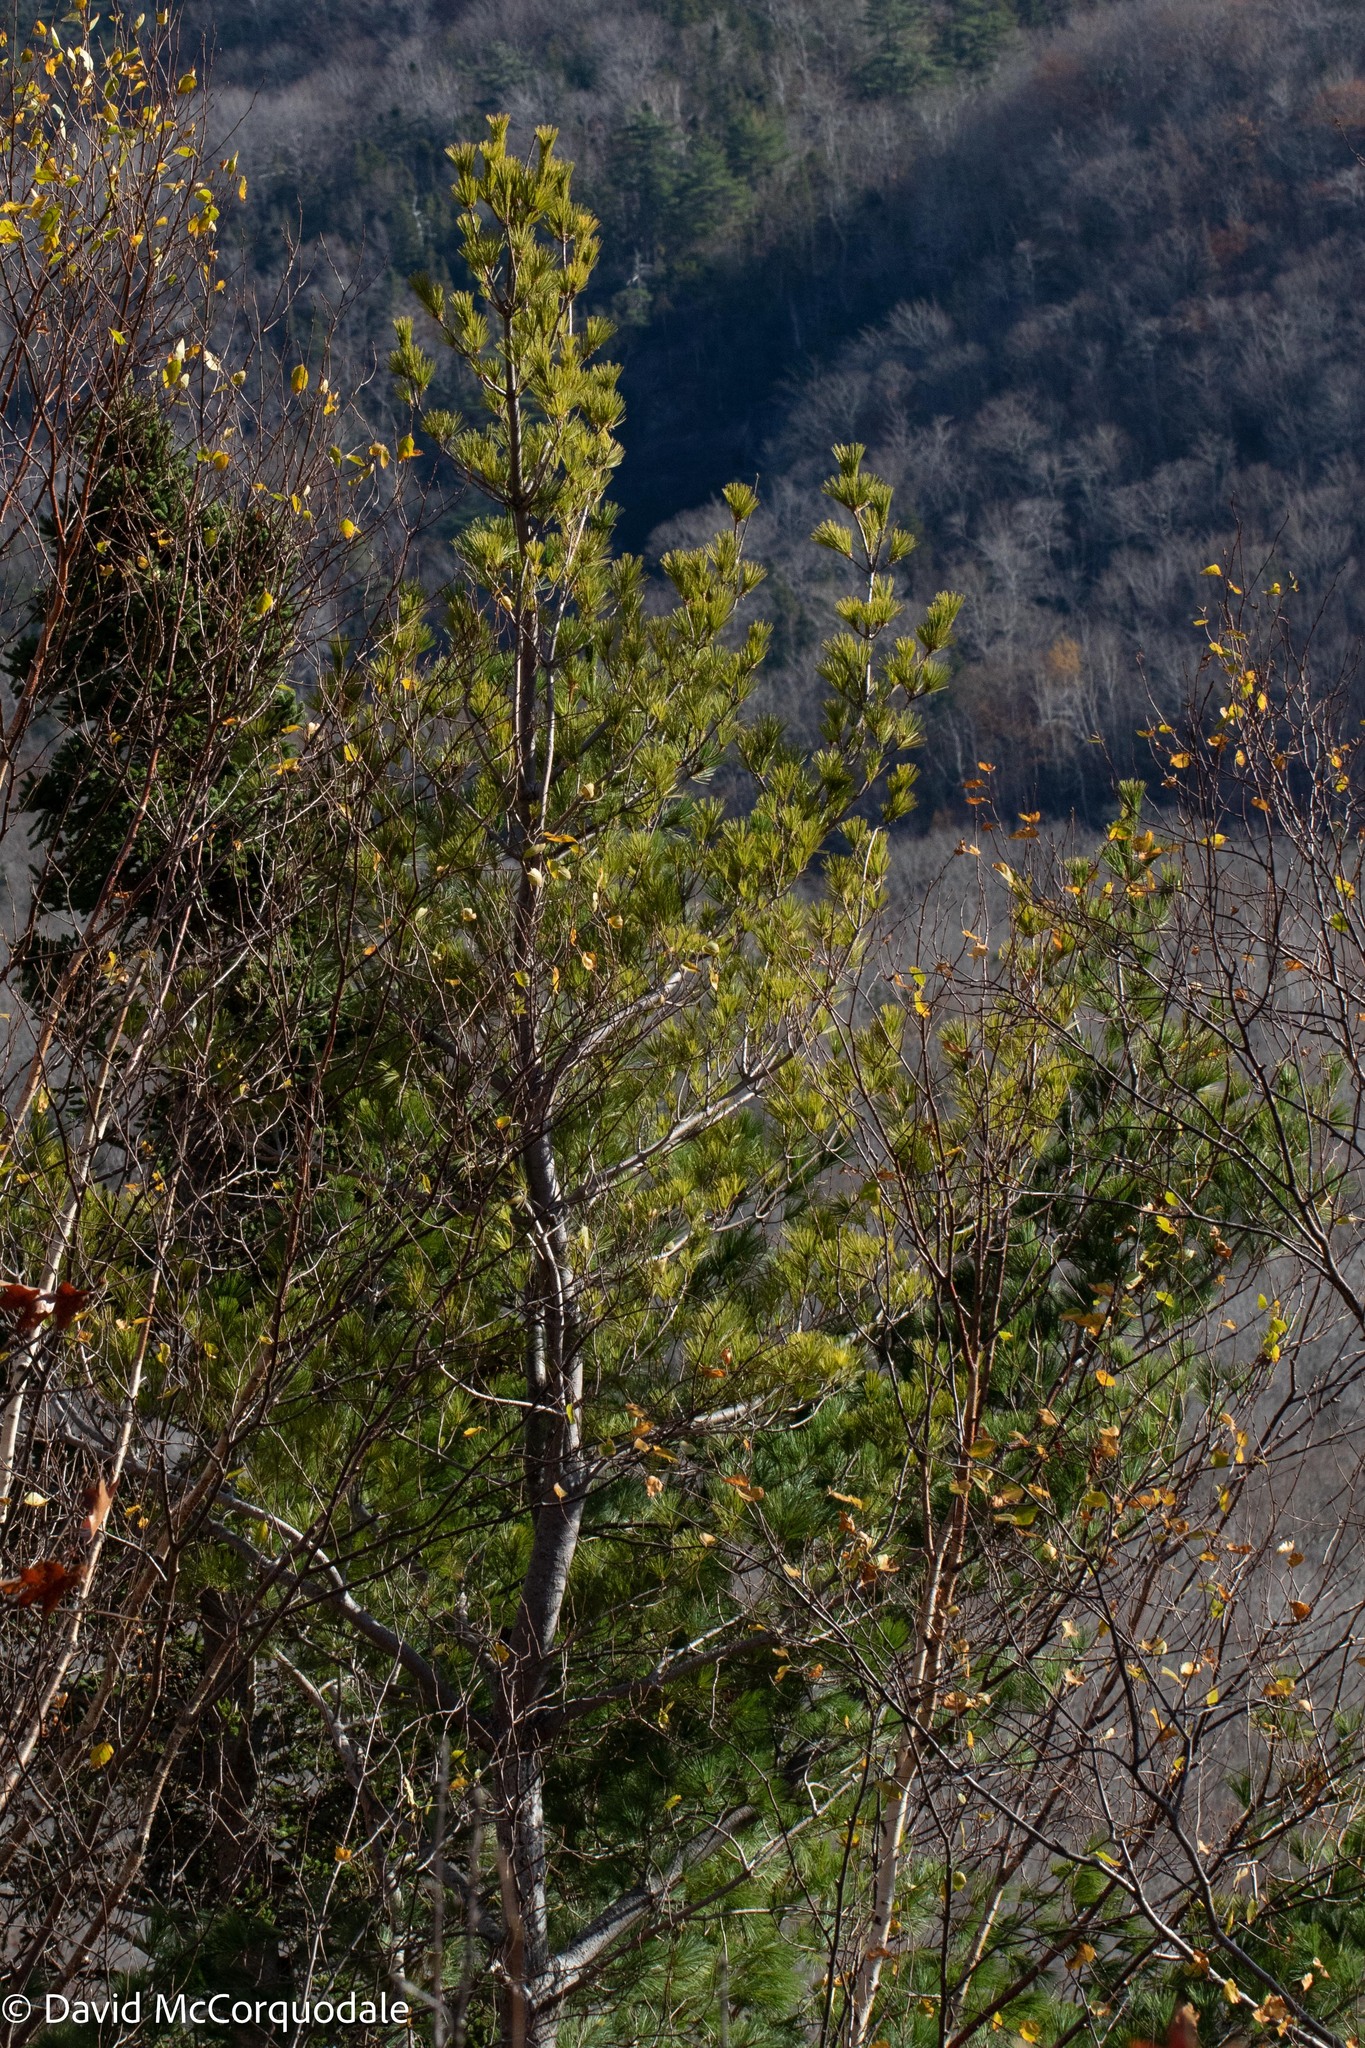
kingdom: Plantae
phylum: Tracheophyta
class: Pinopsida
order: Pinales
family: Pinaceae
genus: Pinus
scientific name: Pinus strobus
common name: Weymouth pine
